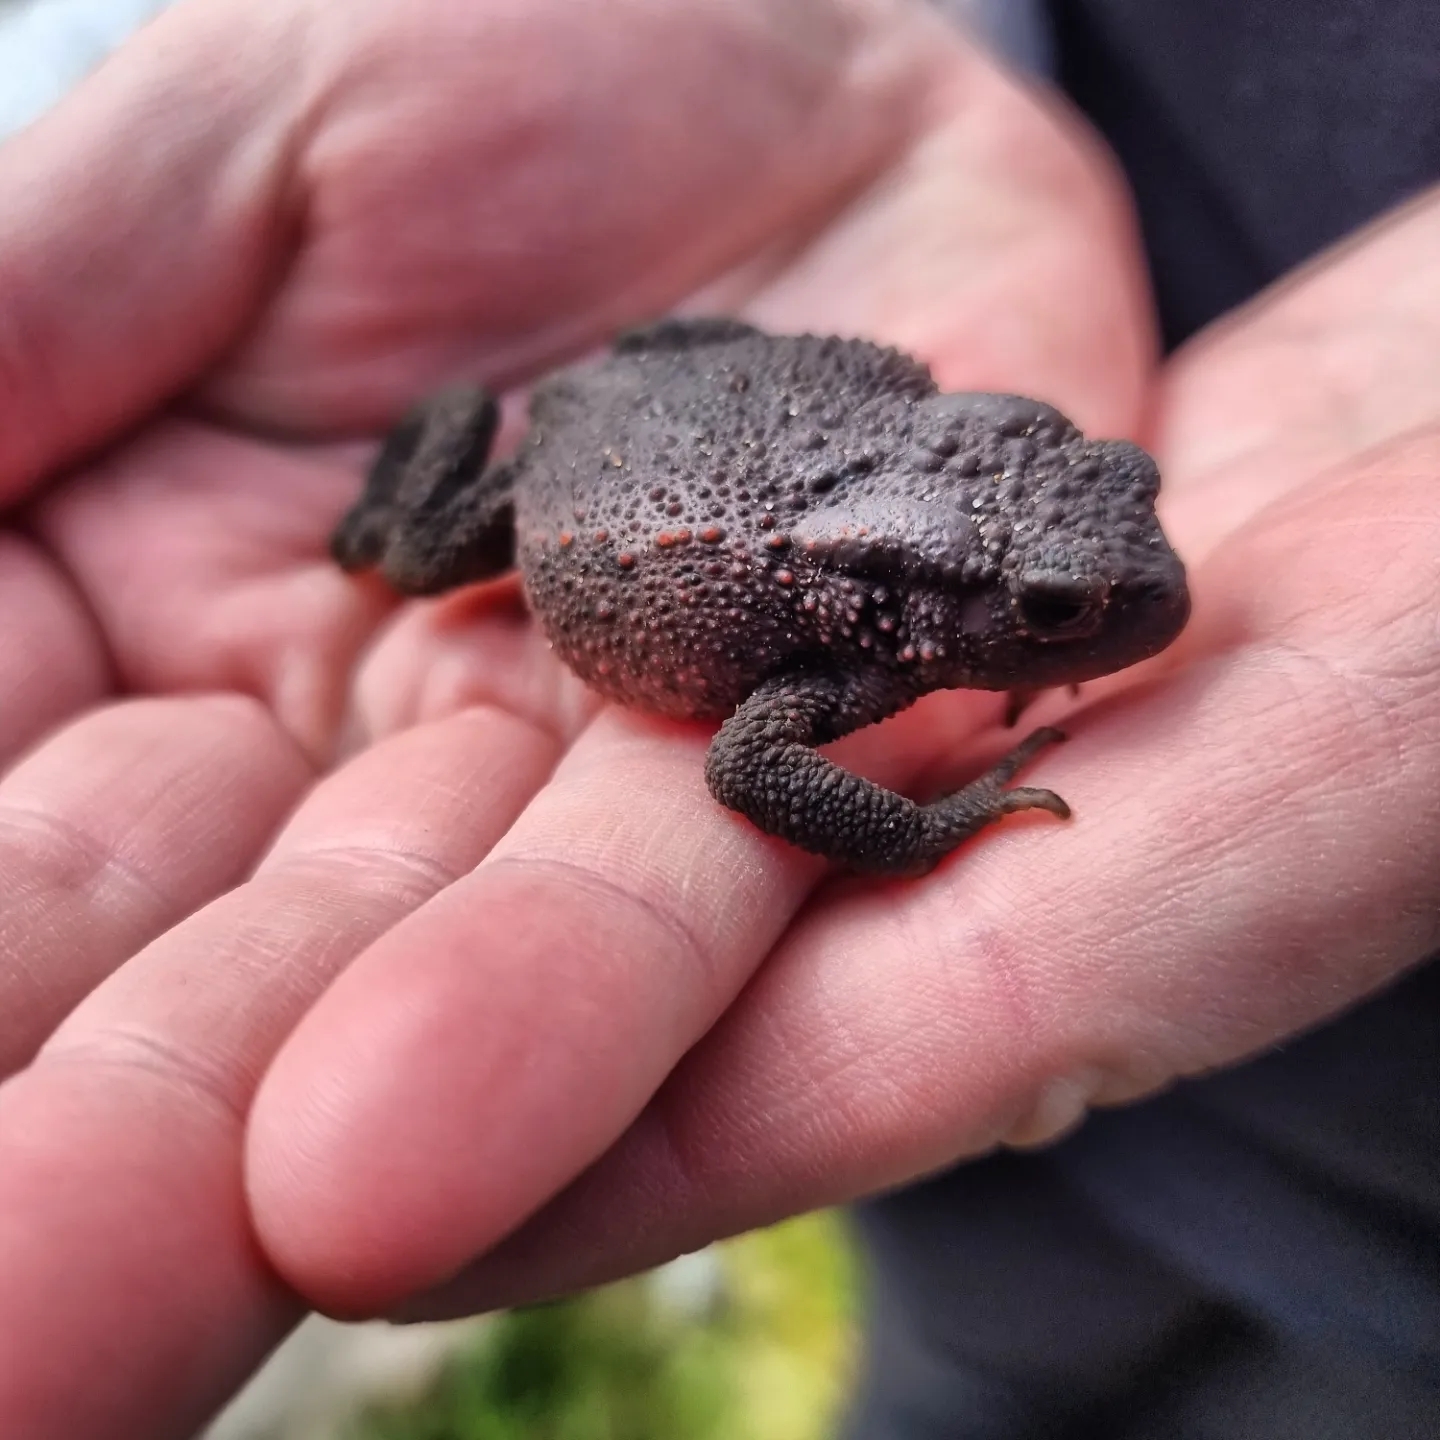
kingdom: Animalia
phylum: Chordata
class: Amphibia
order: Anura
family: Bufonidae
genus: Bufo
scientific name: Bufo bufo
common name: Common toad
